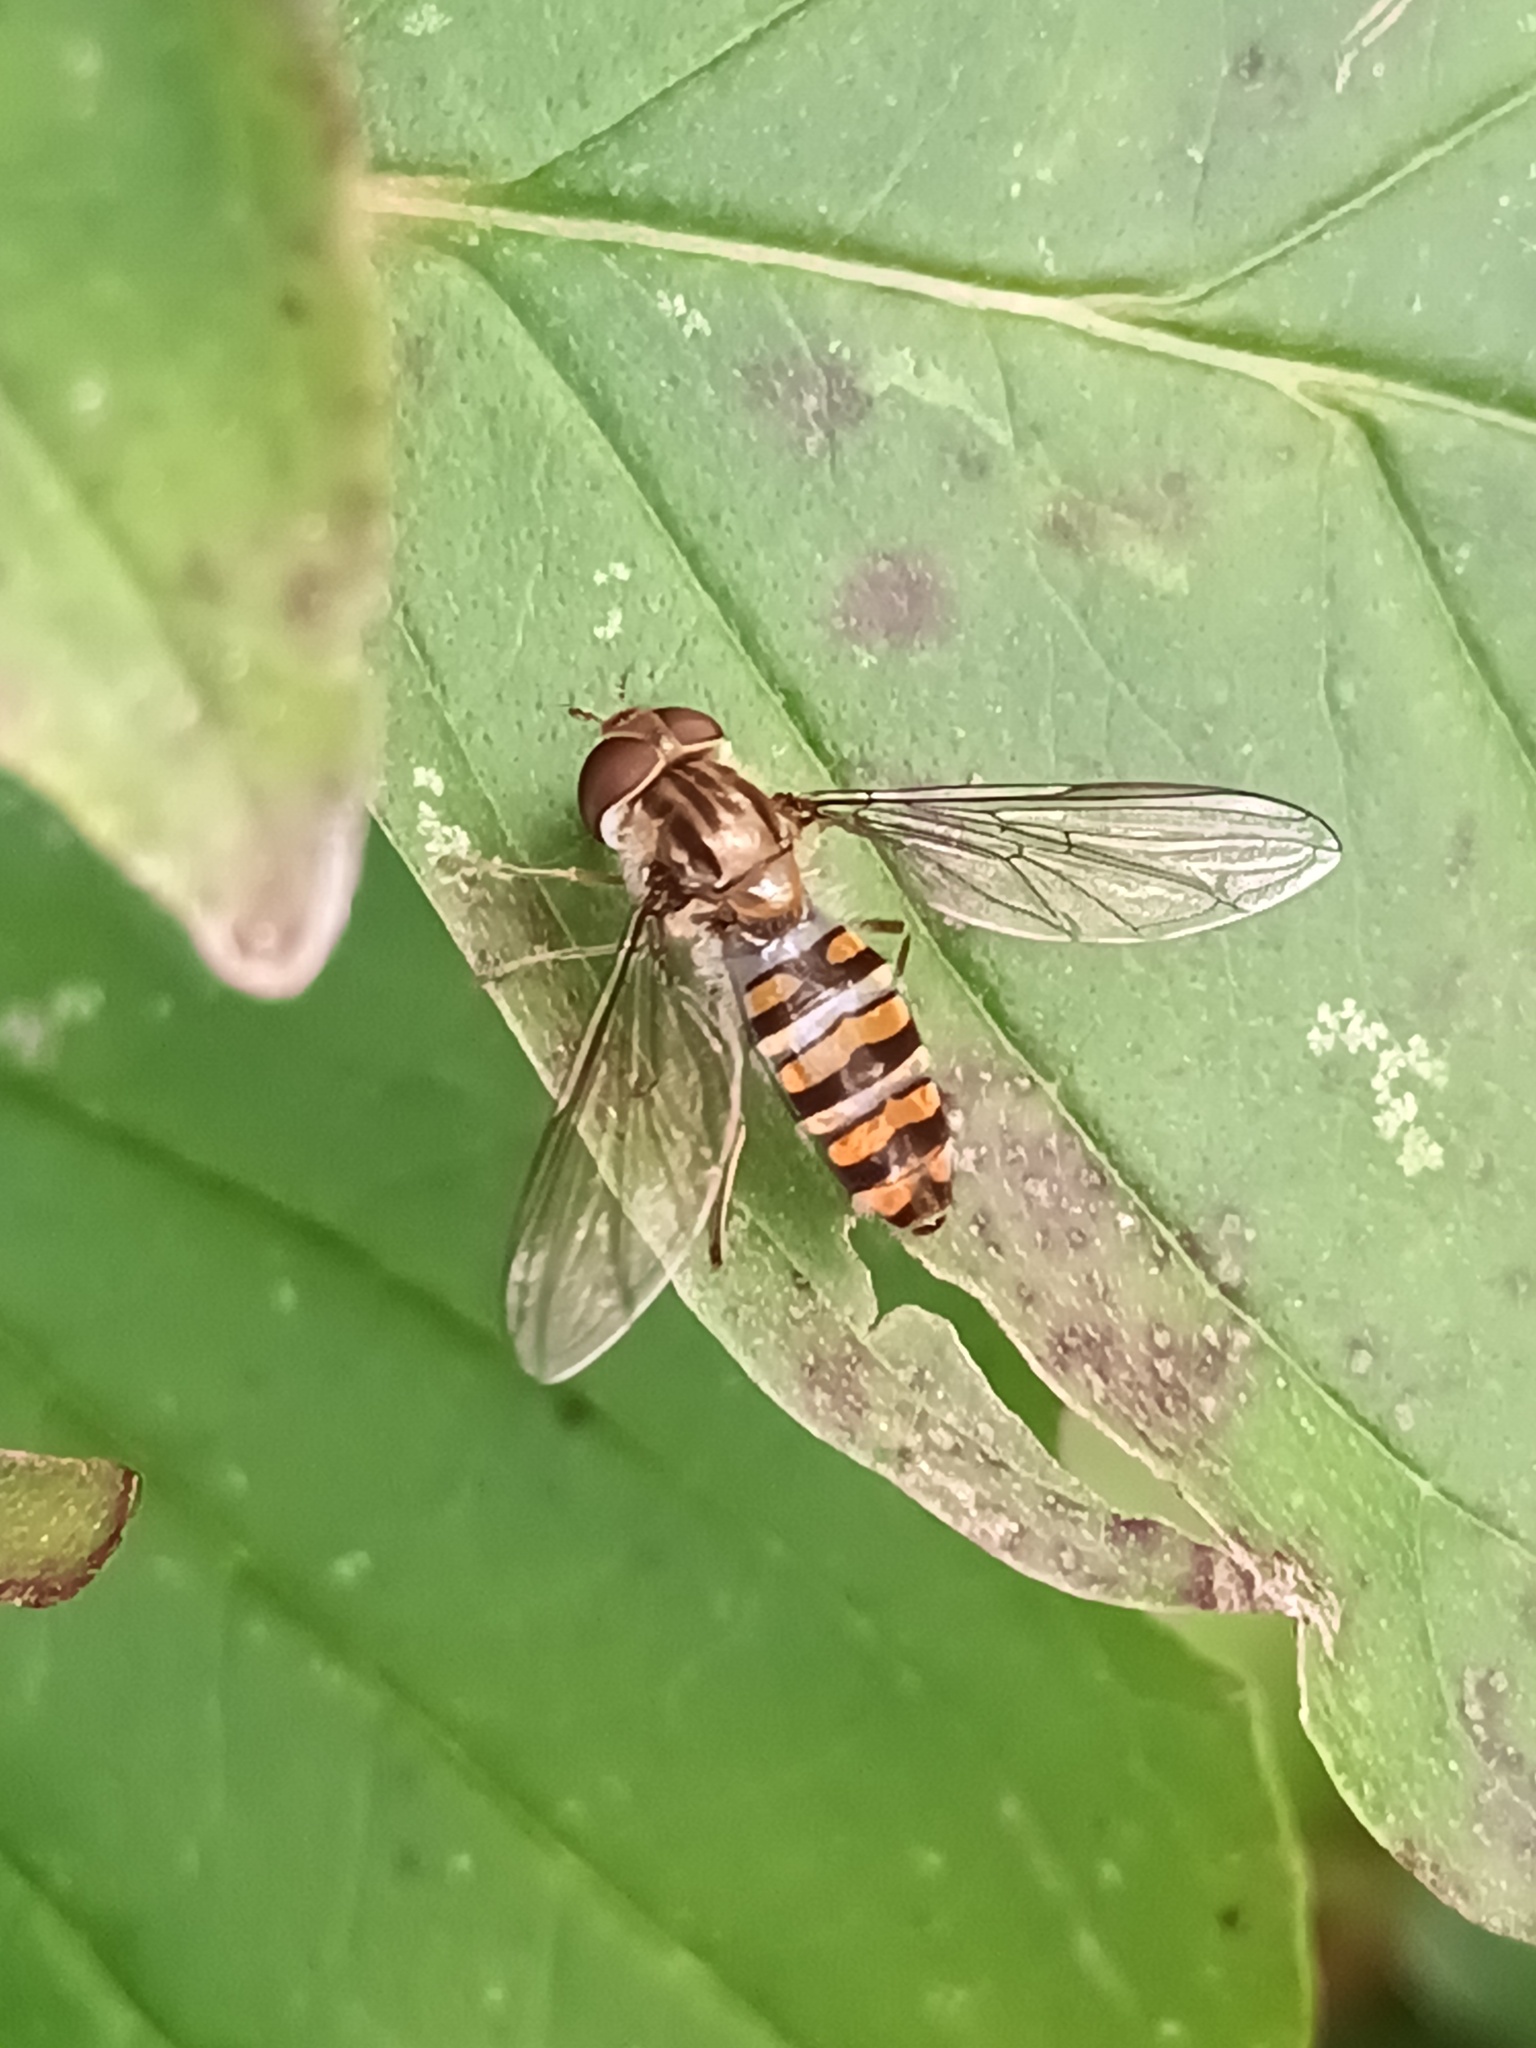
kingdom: Animalia
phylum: Arthropoda
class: Insecta
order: Diptera
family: Syrphidae
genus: Episyrphus
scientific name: Episyrphus balteatus
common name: Marmalade hoverfly
